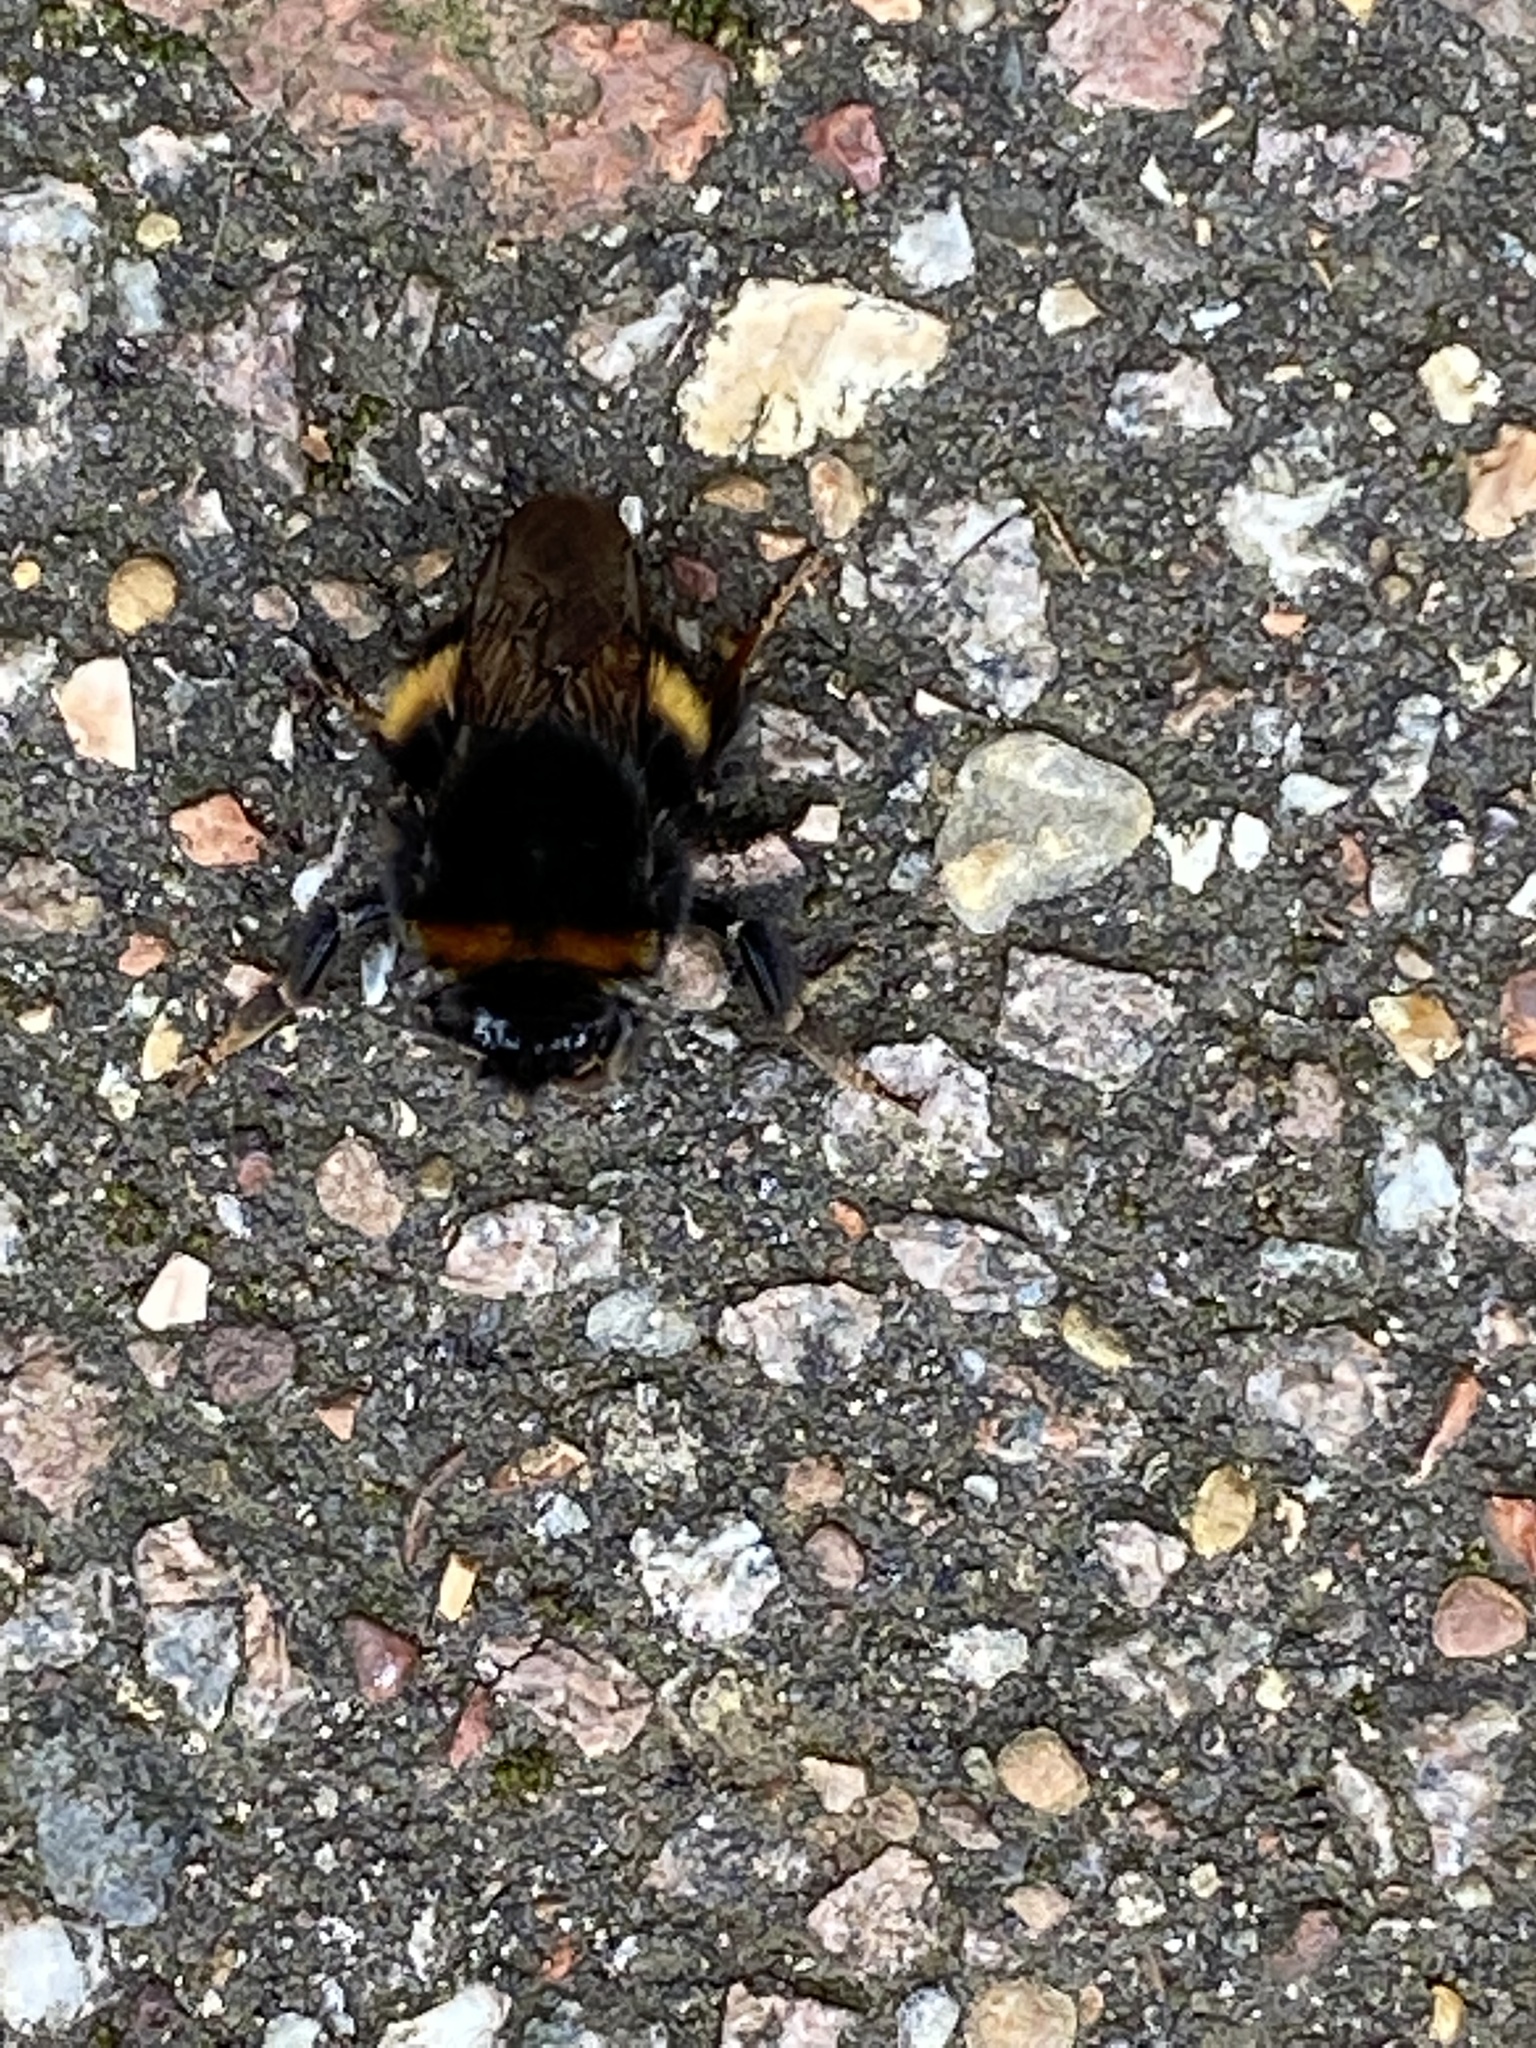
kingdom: Animalia
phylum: Arthropoda
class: Insecta
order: Hymenoptera
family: Apidae
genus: Bombus
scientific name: Bombus terrestris
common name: Buff-tailed bumblebee
